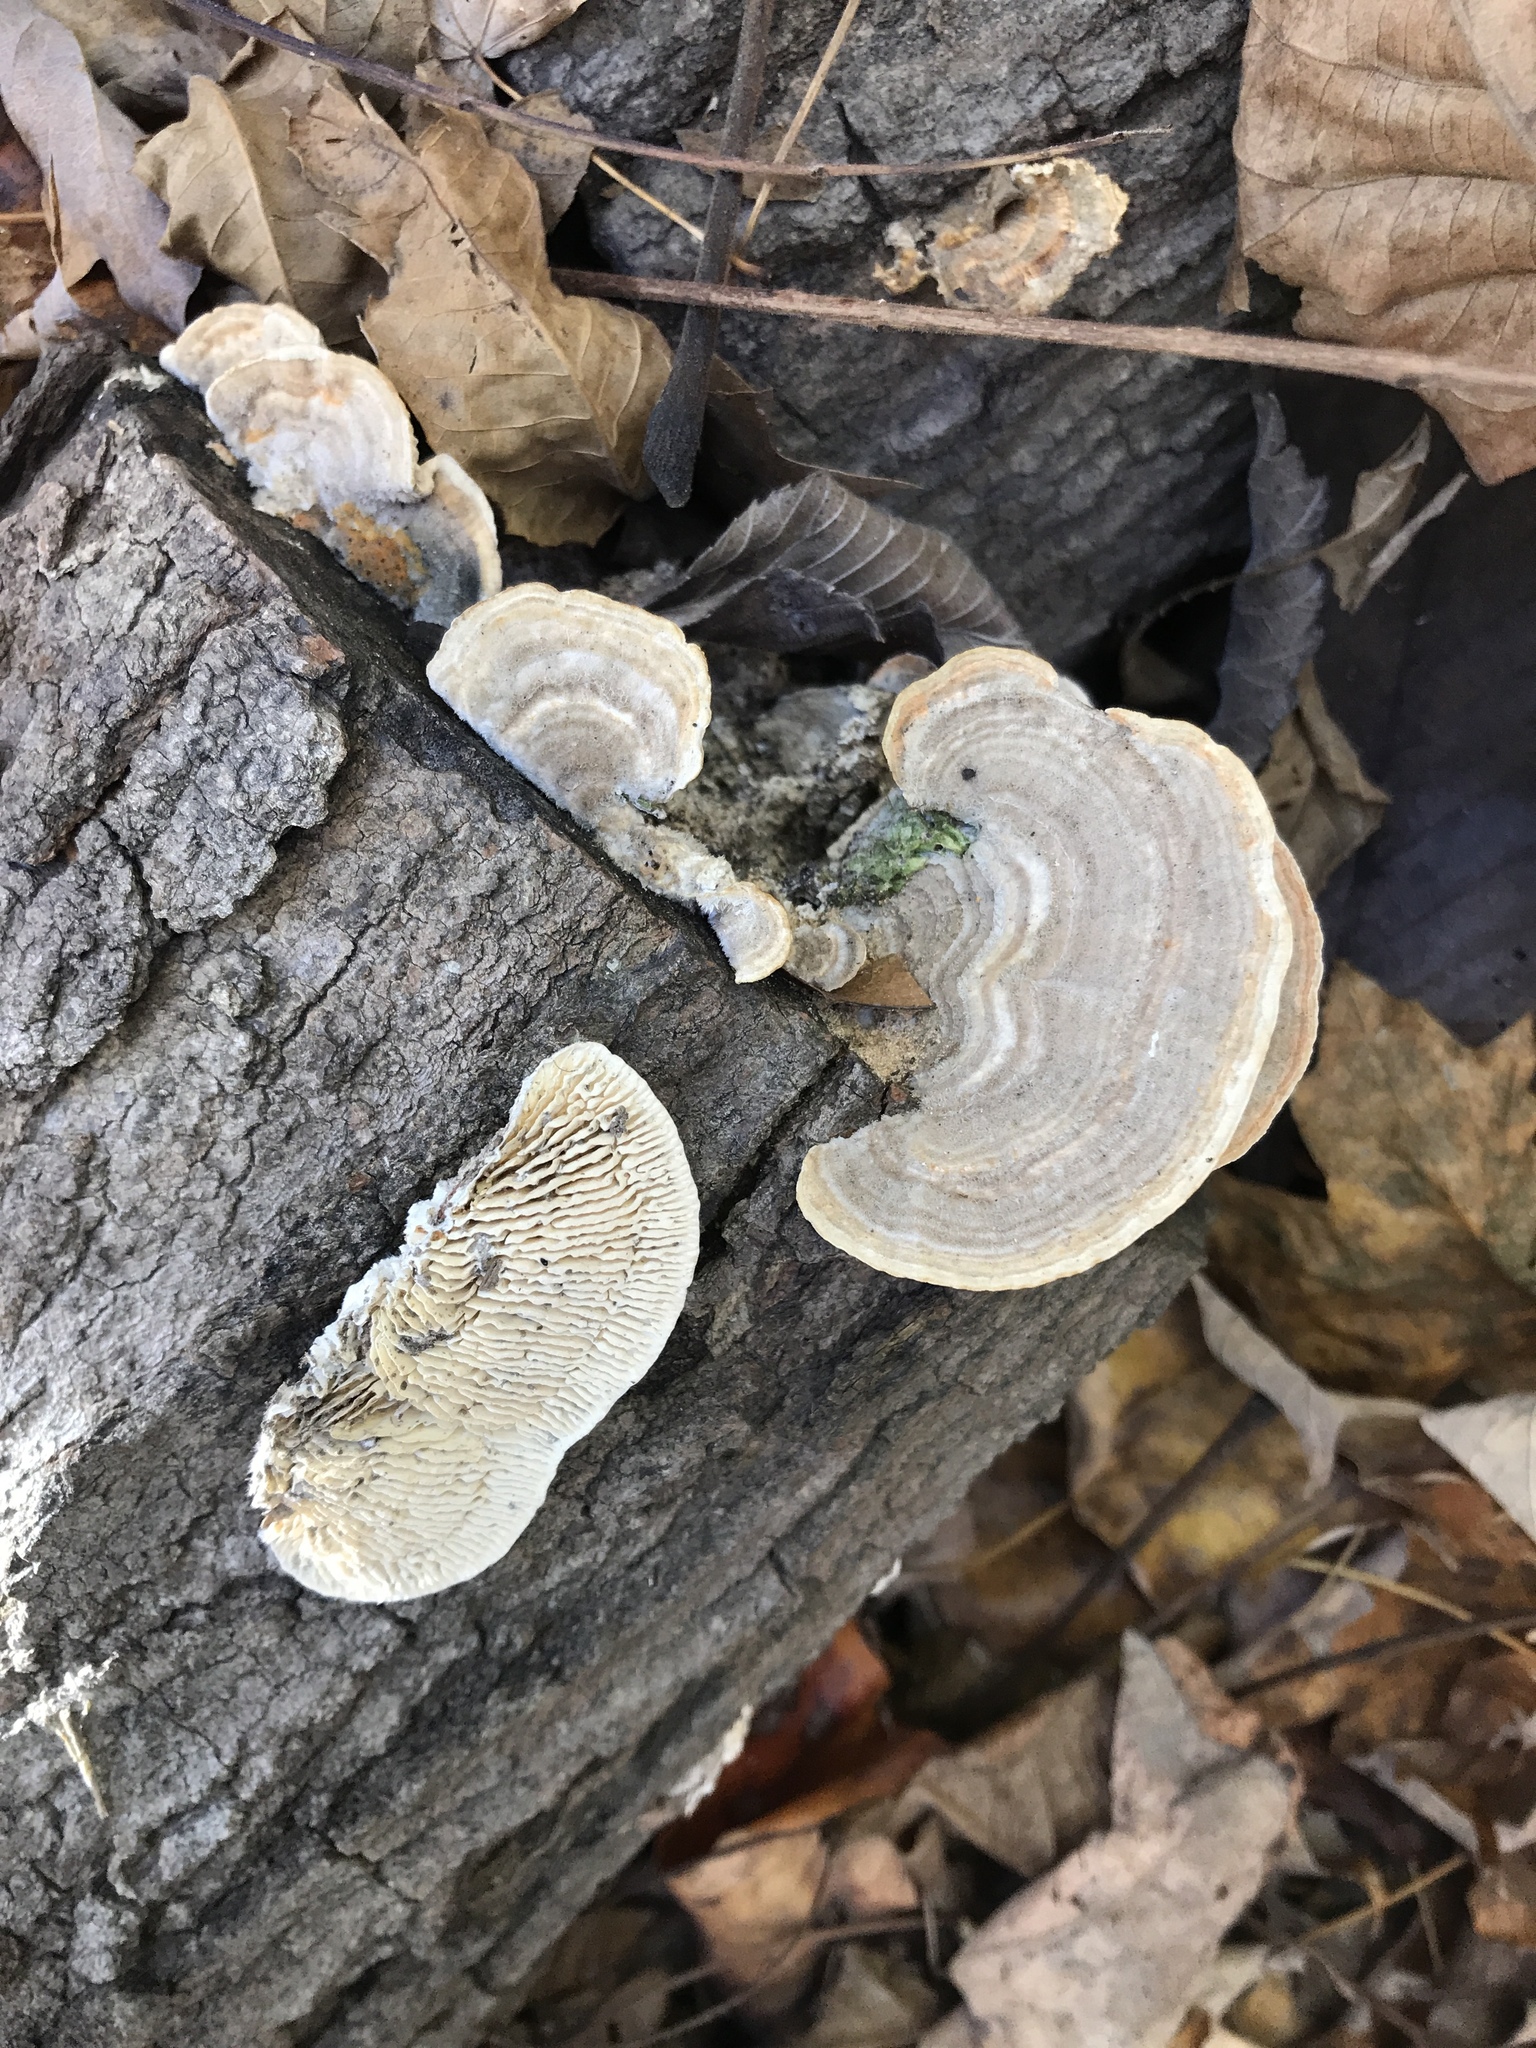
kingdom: Fungi
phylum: Basidiomycota
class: Agaricomycetes
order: Polyporales
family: Polyporaceae
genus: Lenzites
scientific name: Lenzites betulinus
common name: Birch mazegill
